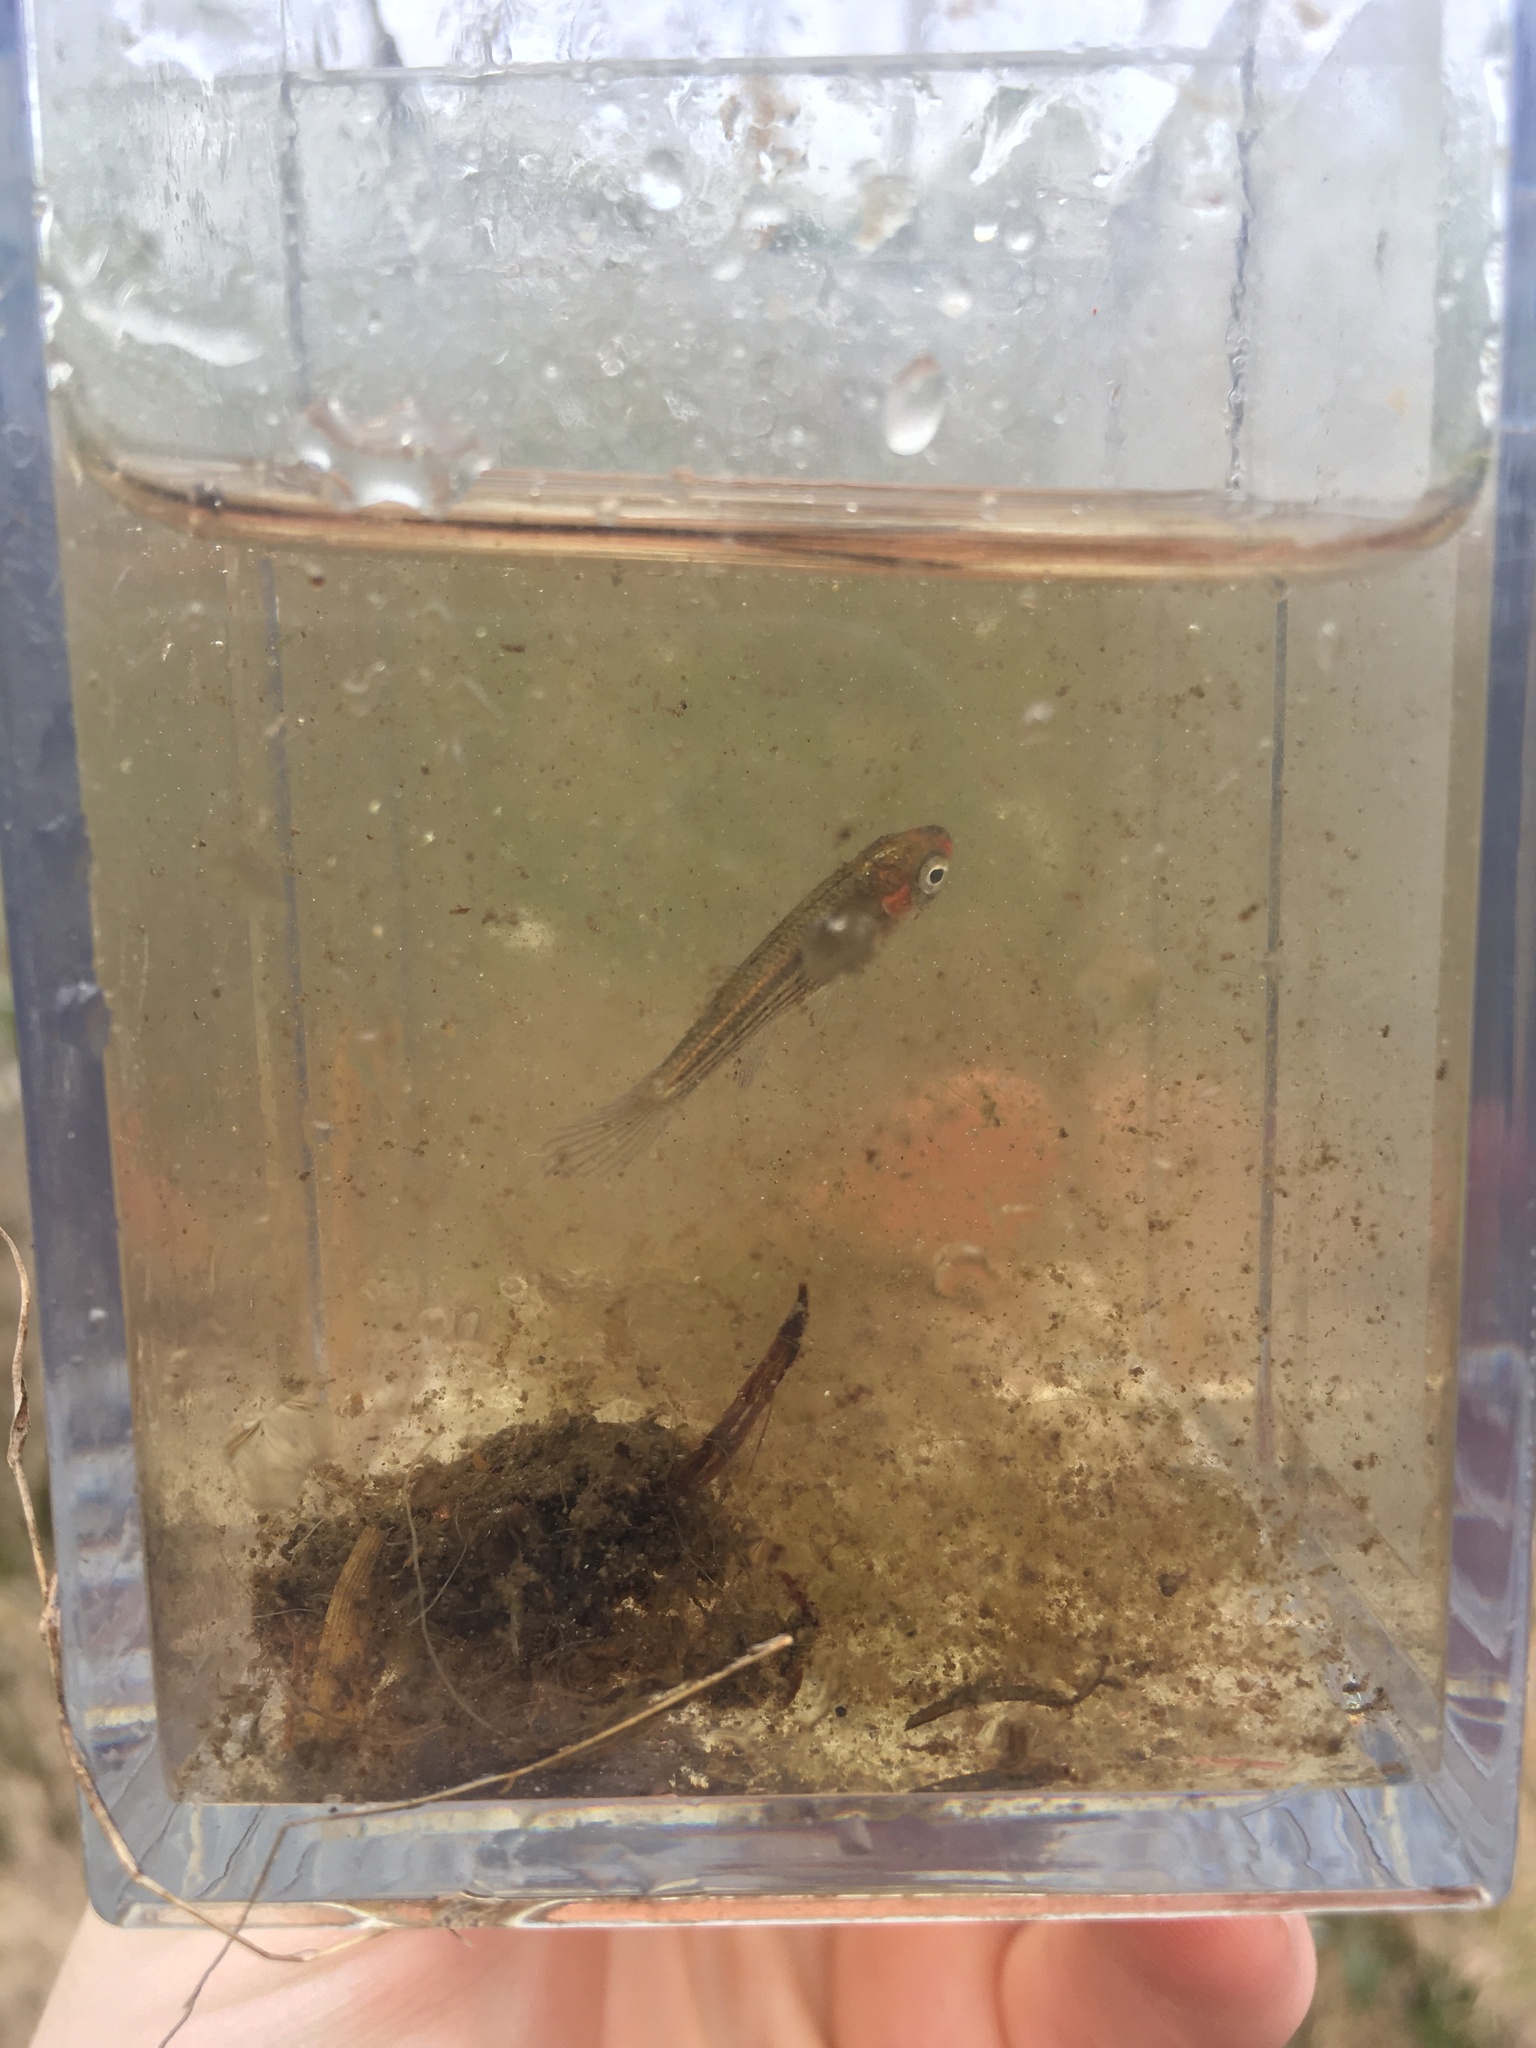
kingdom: Animalia
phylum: Chordata
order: Cyprinodontiformes
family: Fundulidae
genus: Fundulus
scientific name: Fundulus lineolatus
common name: Lined topminnow
